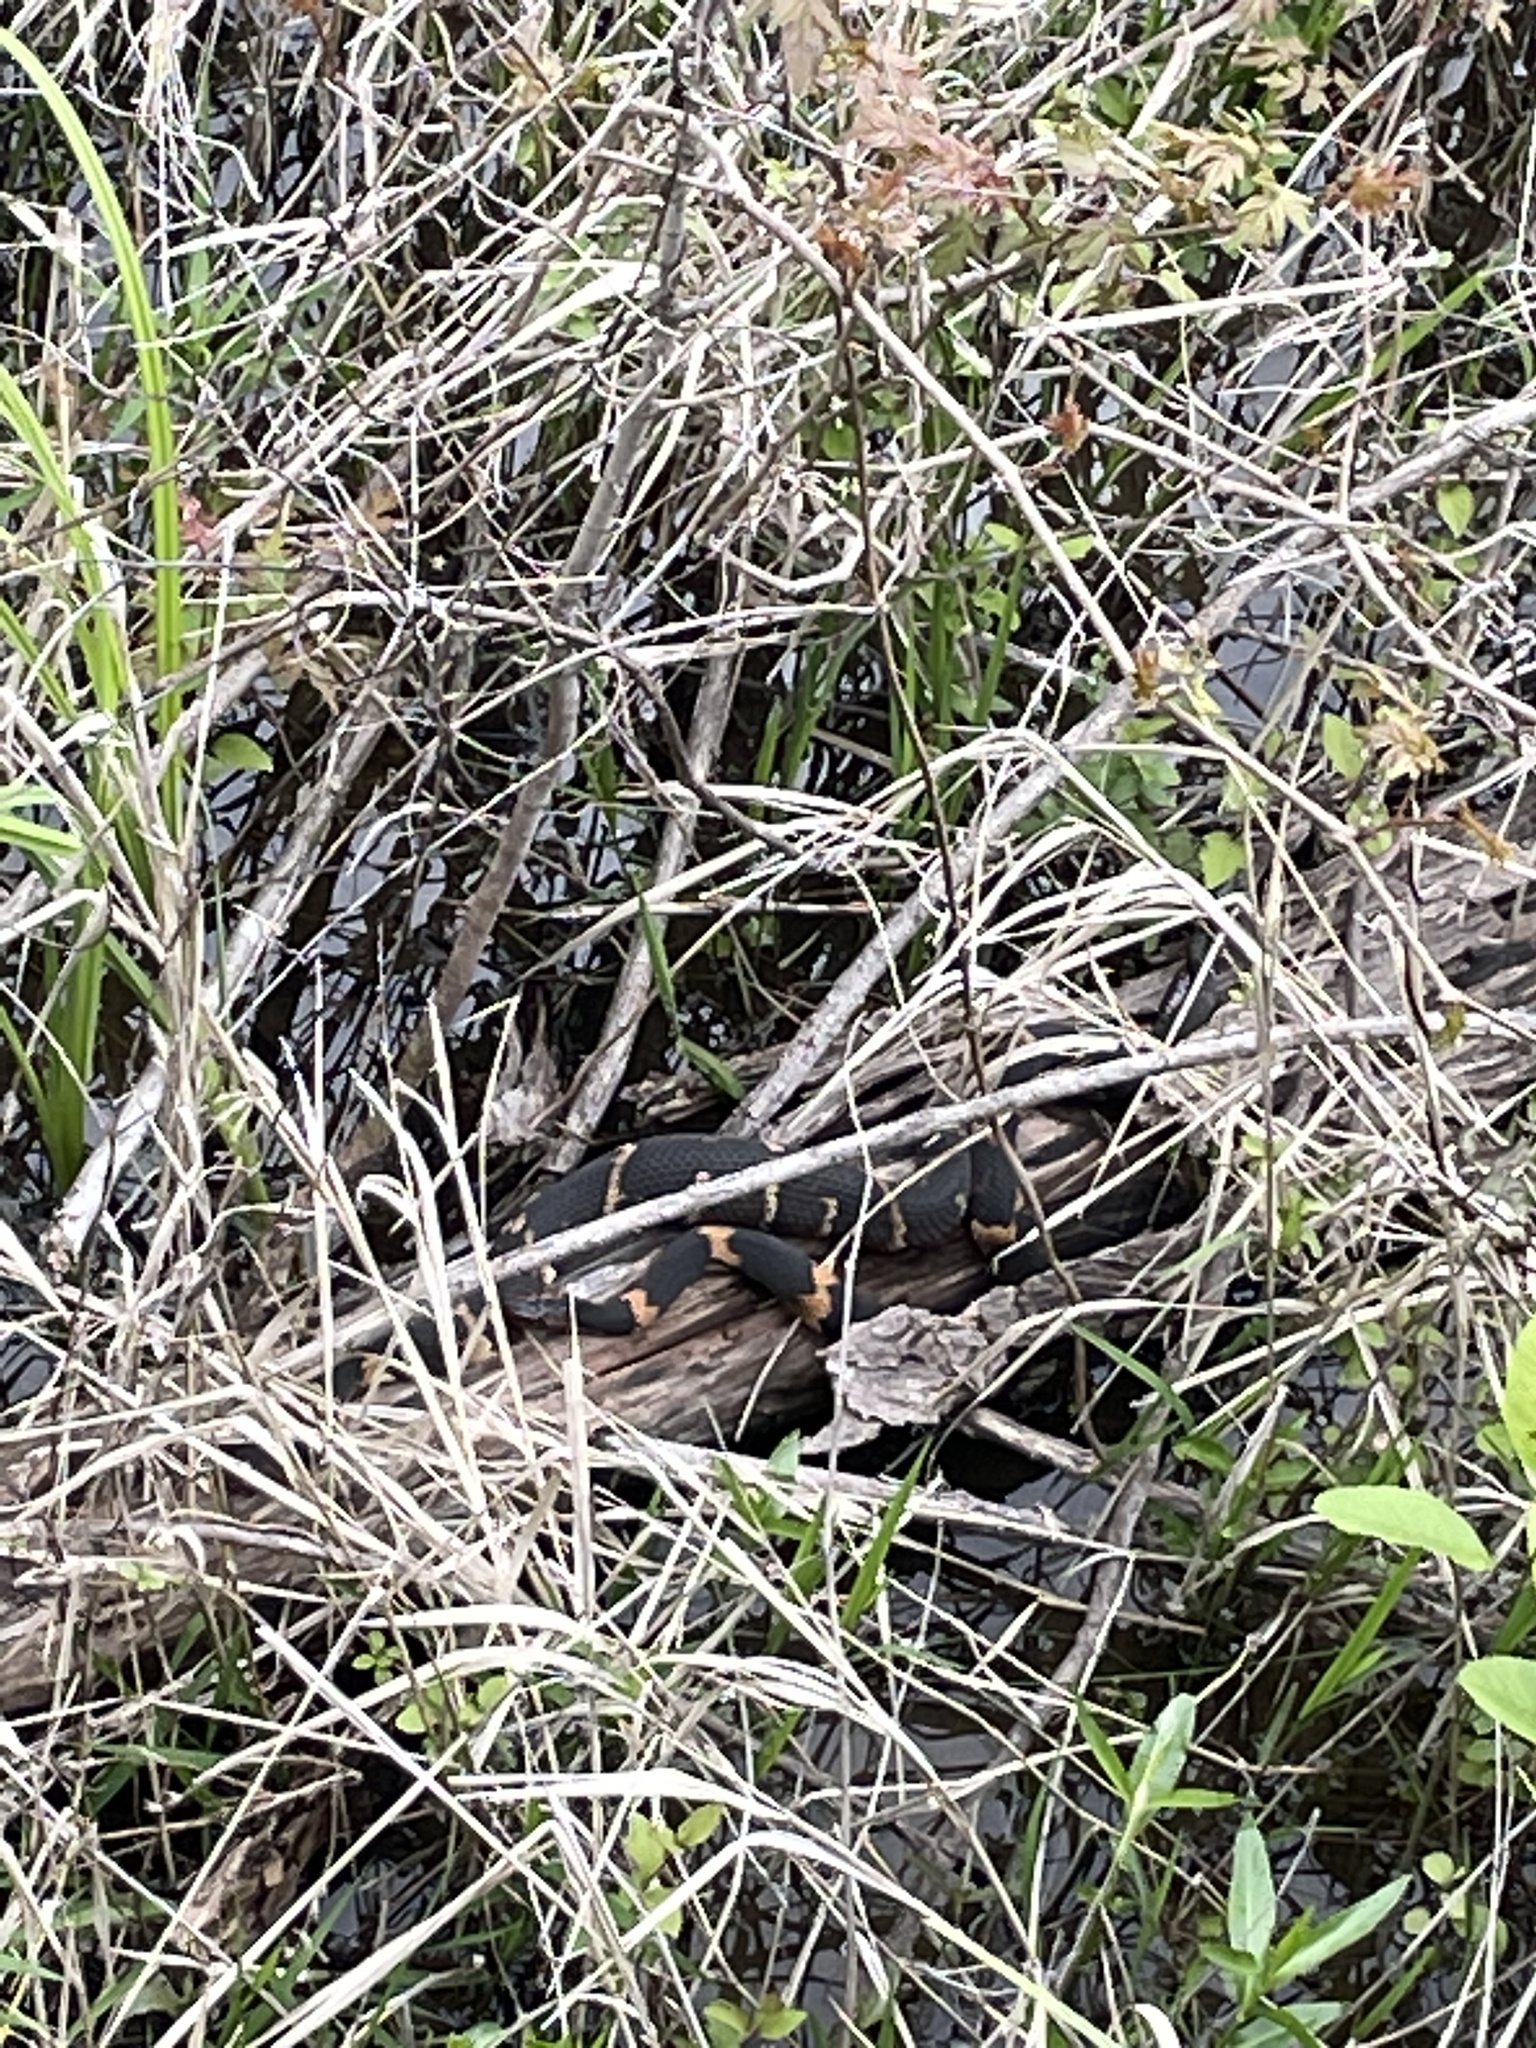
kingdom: Animalia
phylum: Chordata
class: Squamata
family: Colubridae
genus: Nerodia
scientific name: Nerodia fasciata
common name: Southern water snake
